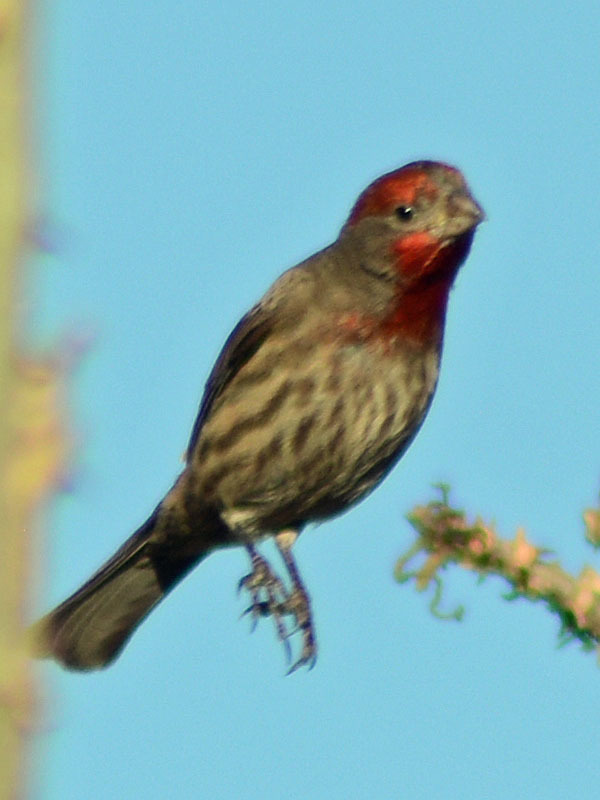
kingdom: Animalia
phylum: Chordata
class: Aves
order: Passeriformes
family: Fringillidae
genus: Haemorhous
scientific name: Haemorhous mexicanus
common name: House finch
